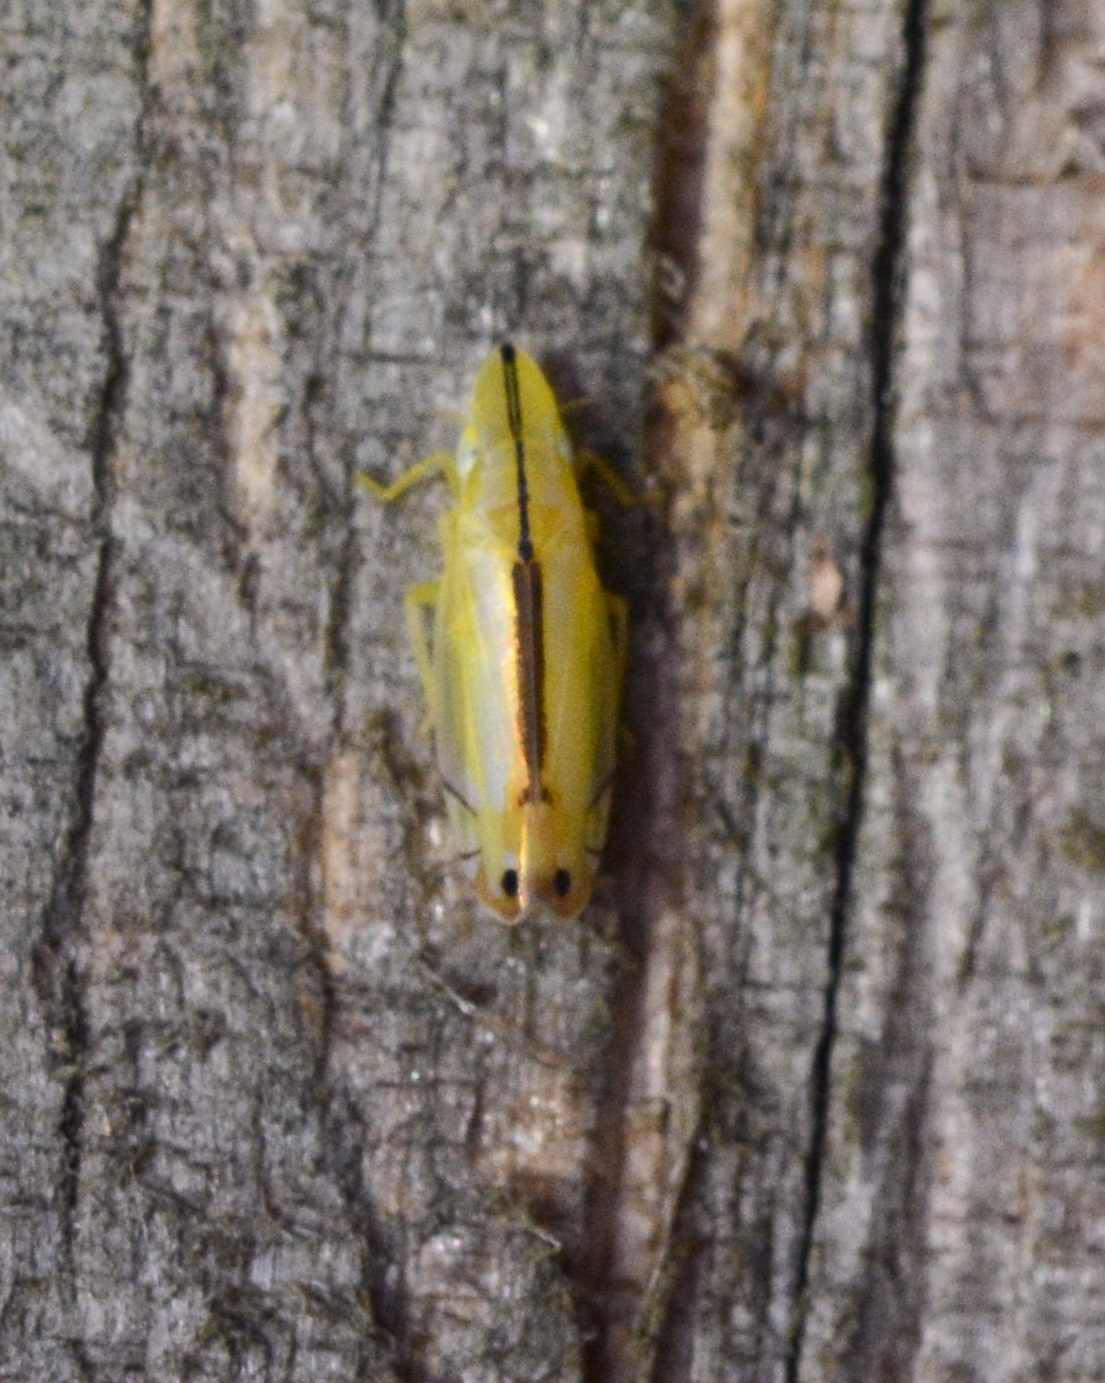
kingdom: Animalia
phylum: Arthropoda
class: Insecta
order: Hemiptera
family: Cicadellidae
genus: Sophonia
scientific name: Sophonia orientalis
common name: Two-spotted leafhopper
